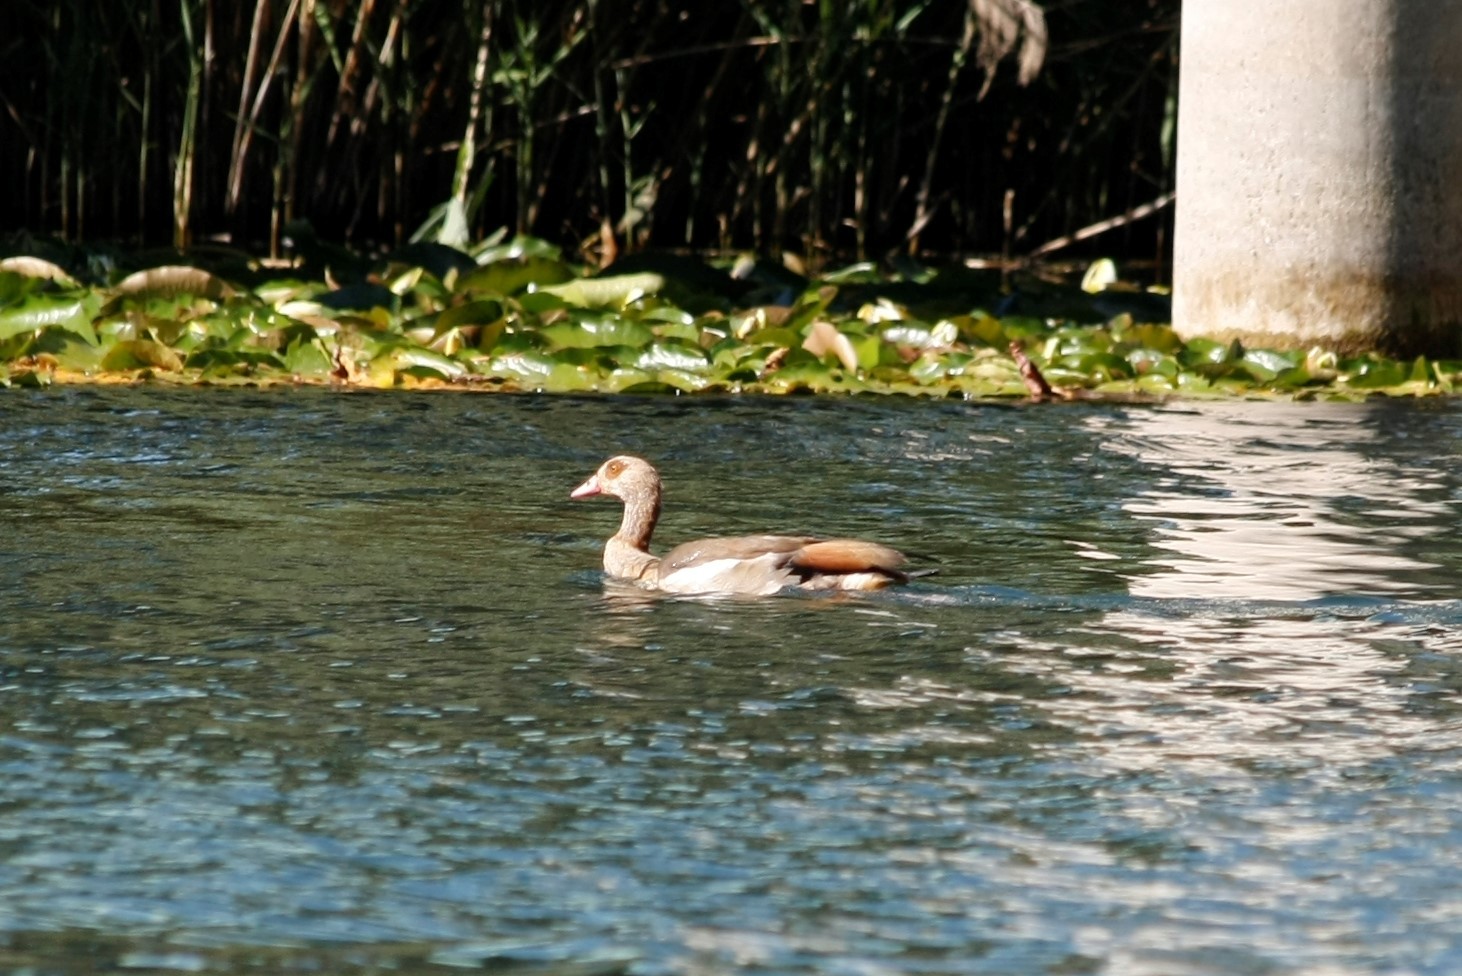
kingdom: Animalia
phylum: Chordata
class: Aves
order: Anseriformes
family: Anatidae
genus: Alopochen
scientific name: Alopochen aegyptiaca
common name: Egyptian goose
